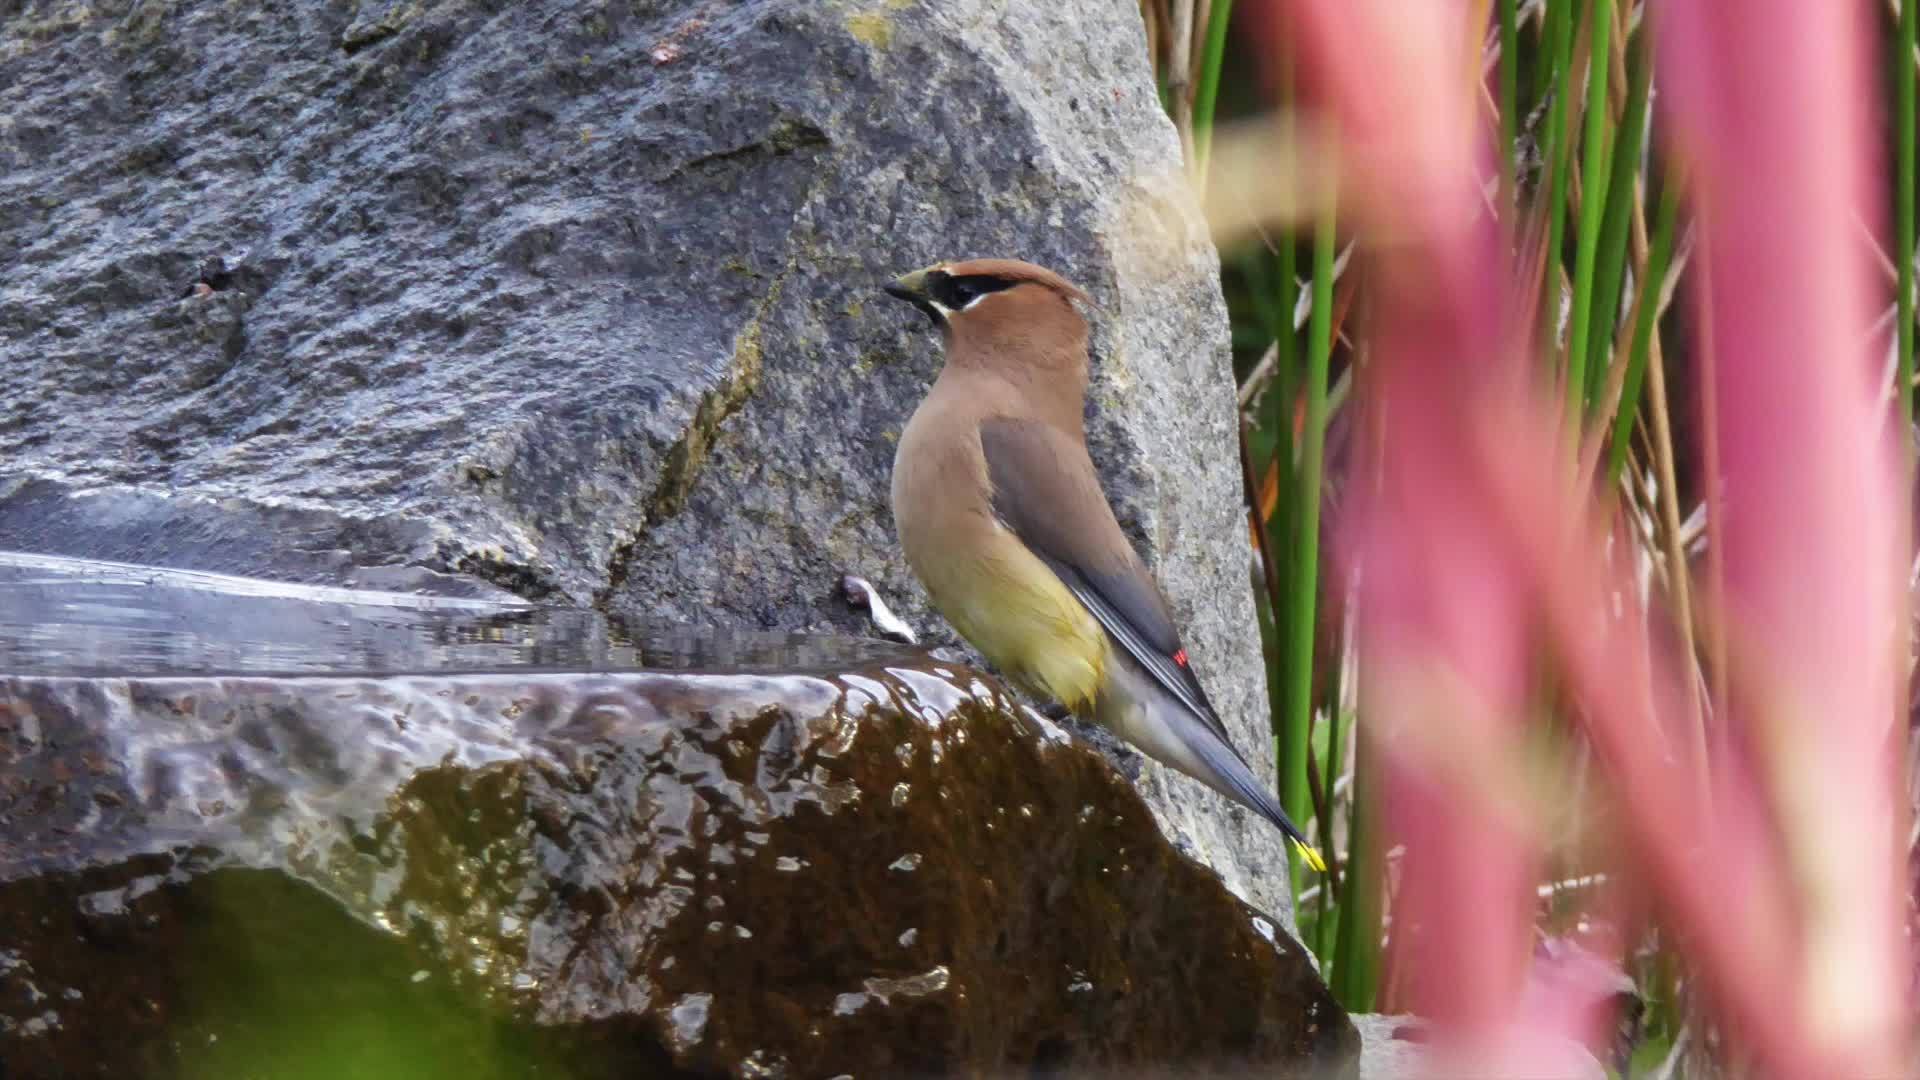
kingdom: Animalia
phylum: Chordata
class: Aves
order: Passeriformes
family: Bombycillidae
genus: Bombycilla
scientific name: Bombycilla cedrorum
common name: Cedar waxwing
